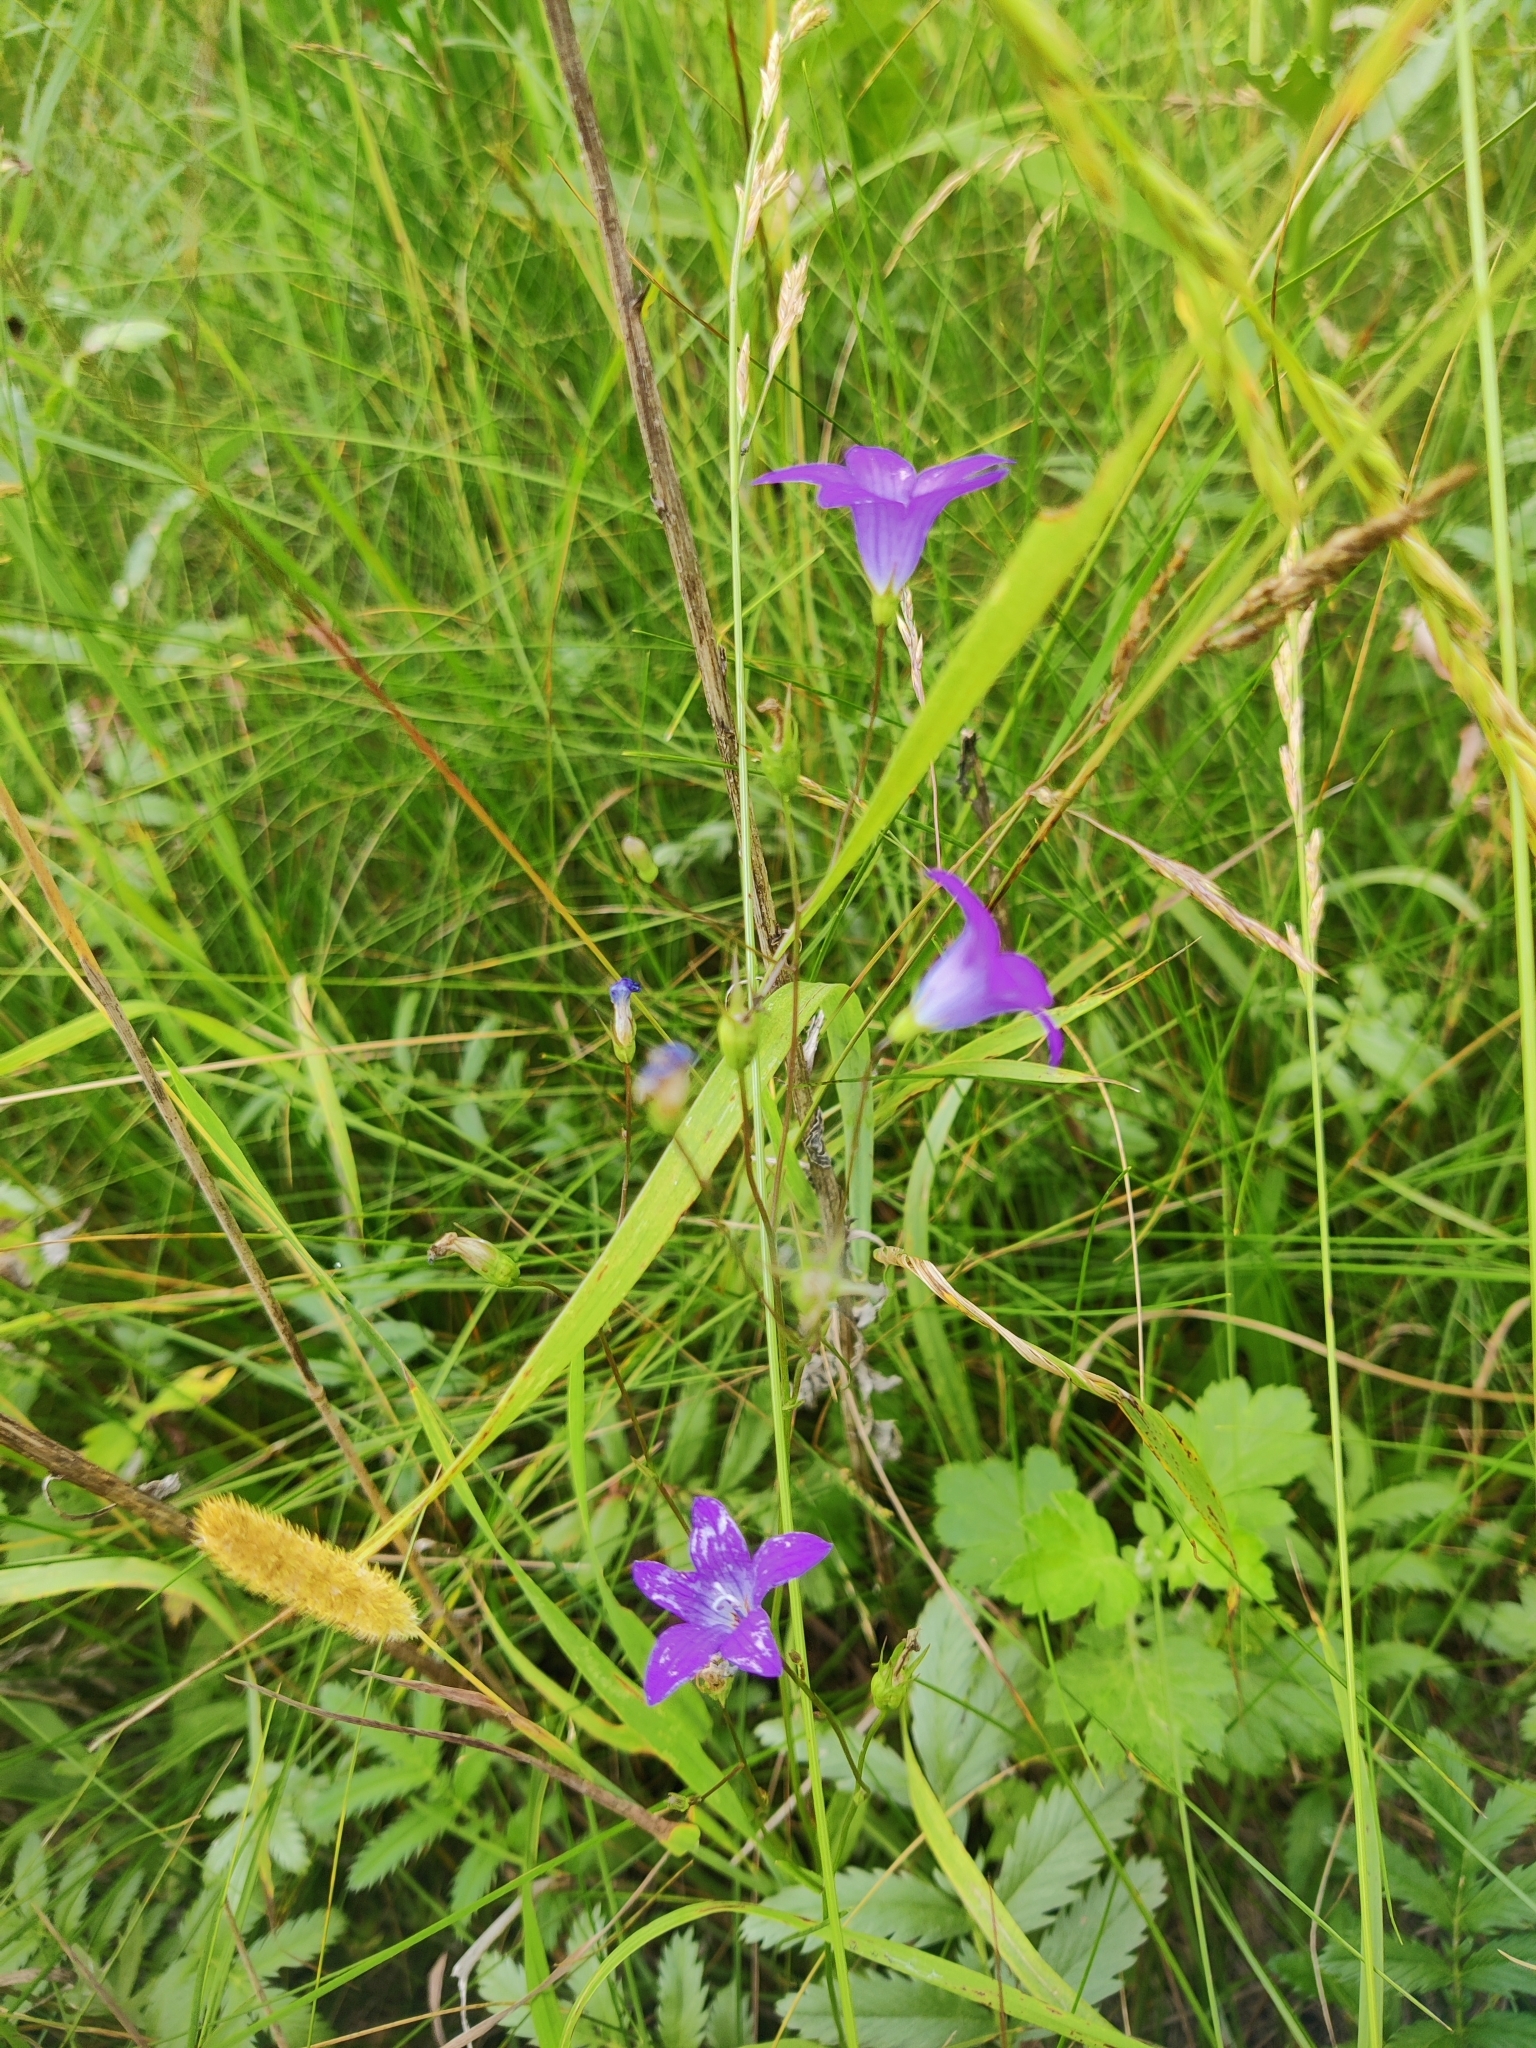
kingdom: Plantae
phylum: Tracheophyta
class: Magnoliopsida
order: Asterales
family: Campanulaceae
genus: Campanula
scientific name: Campanula patula
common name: Spreading bellflower
